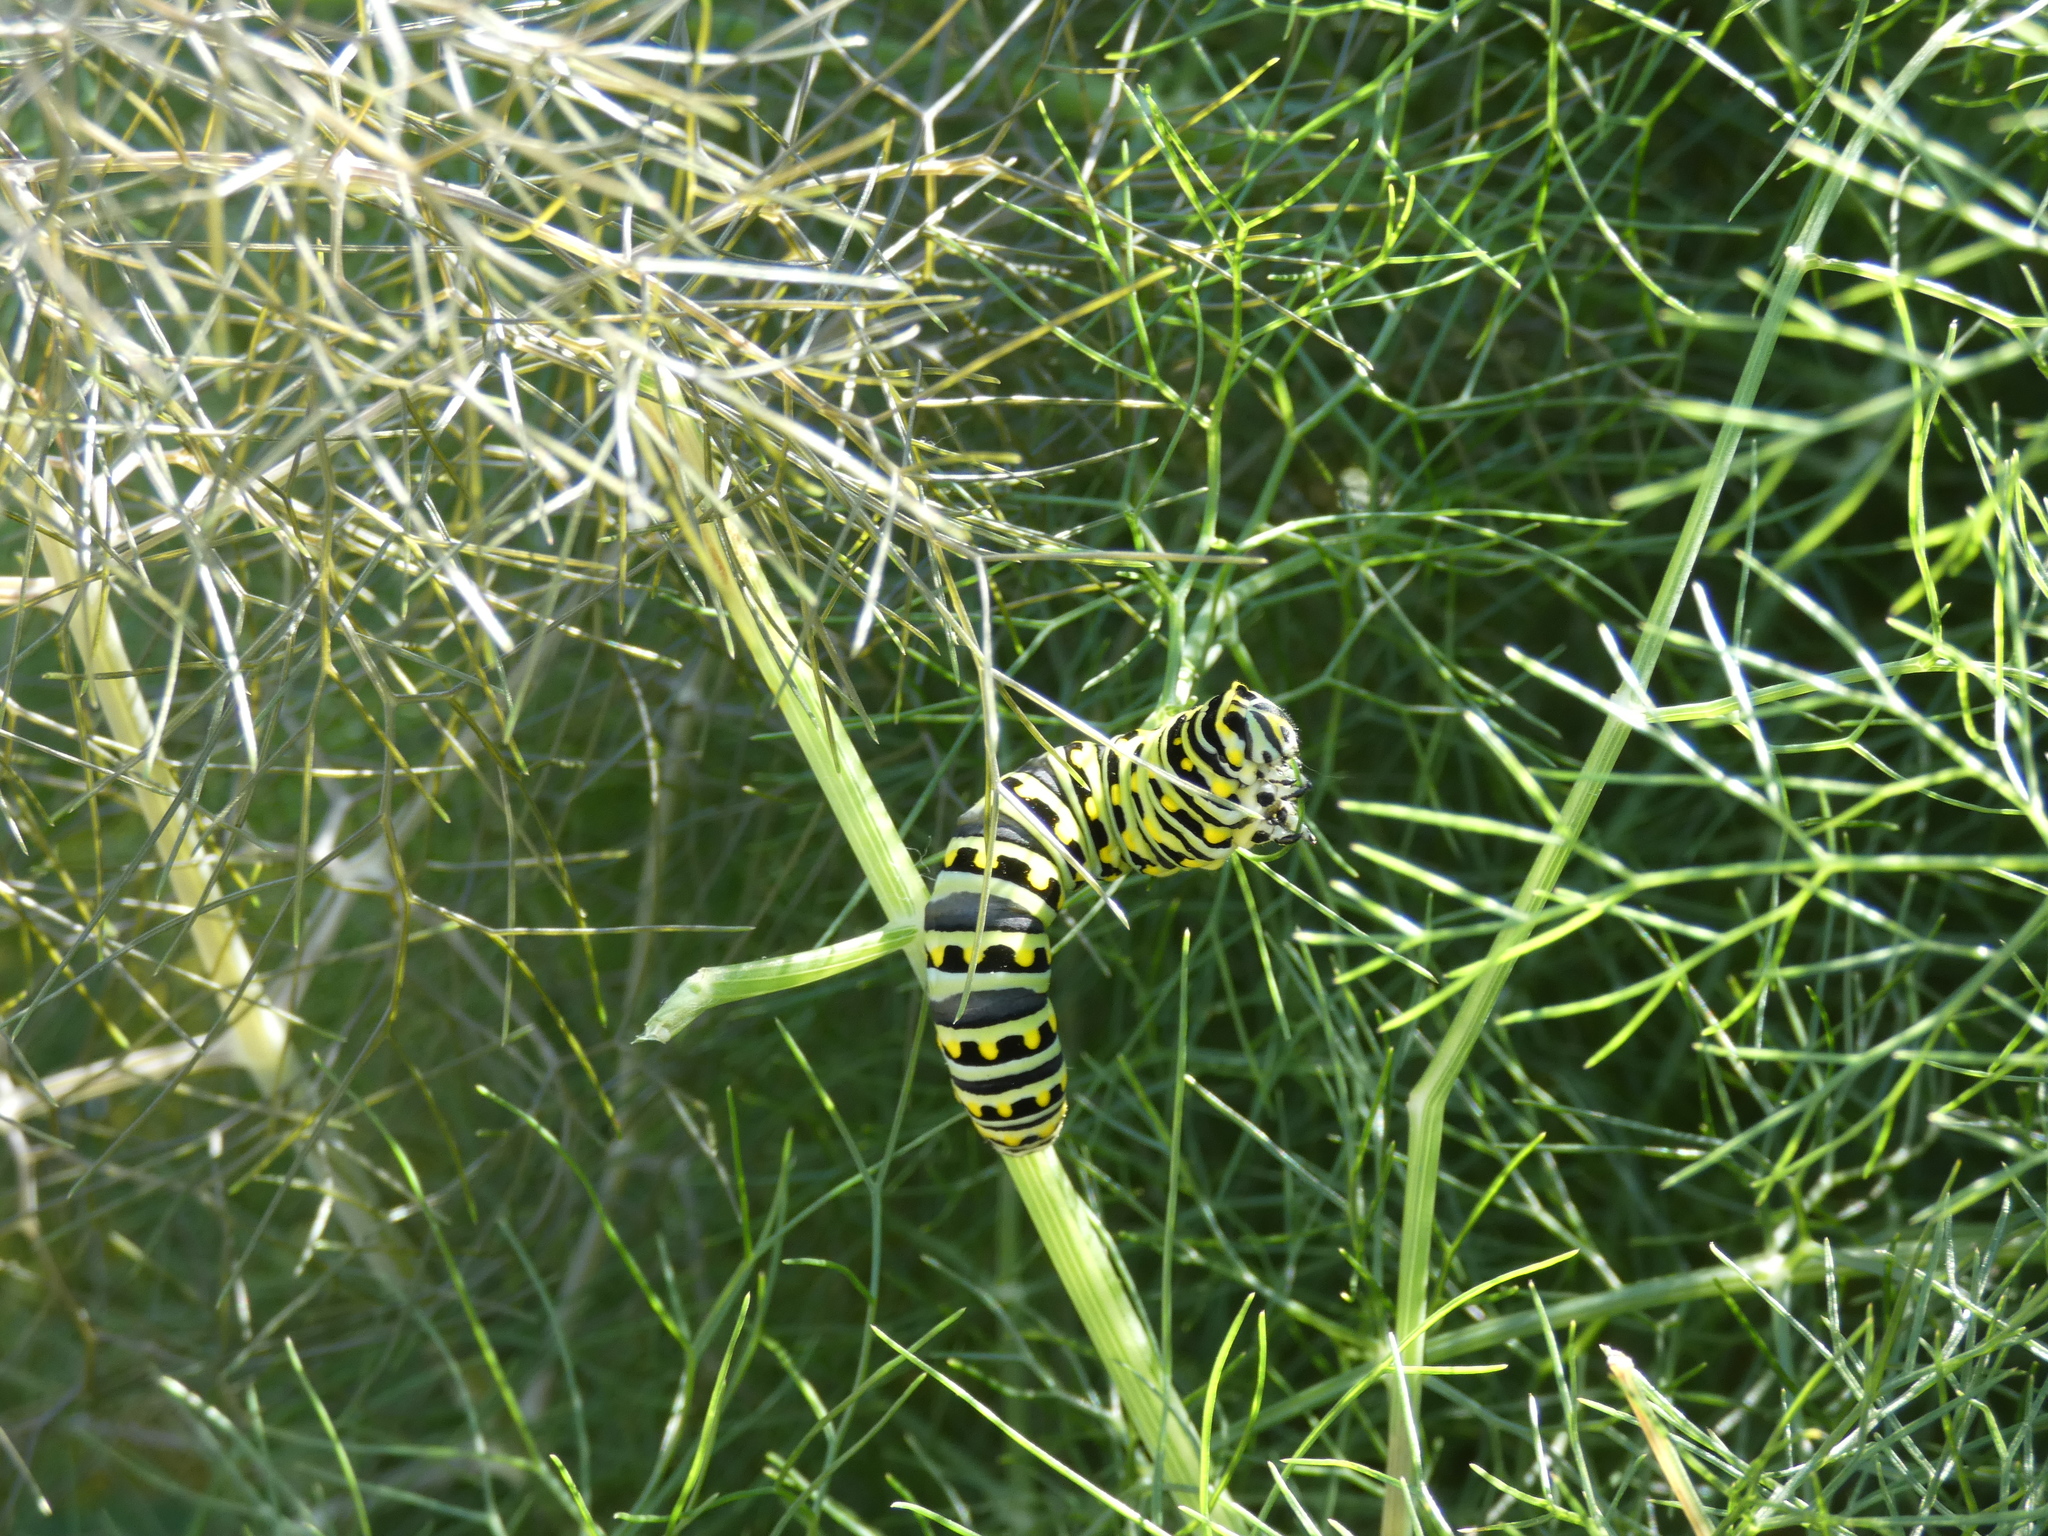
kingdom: Animalia
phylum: Arthropoda
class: Insecta
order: Lepidoptera
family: Papilionidae
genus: Papilio
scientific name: Papilio polyxenes
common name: Black swallowtail
